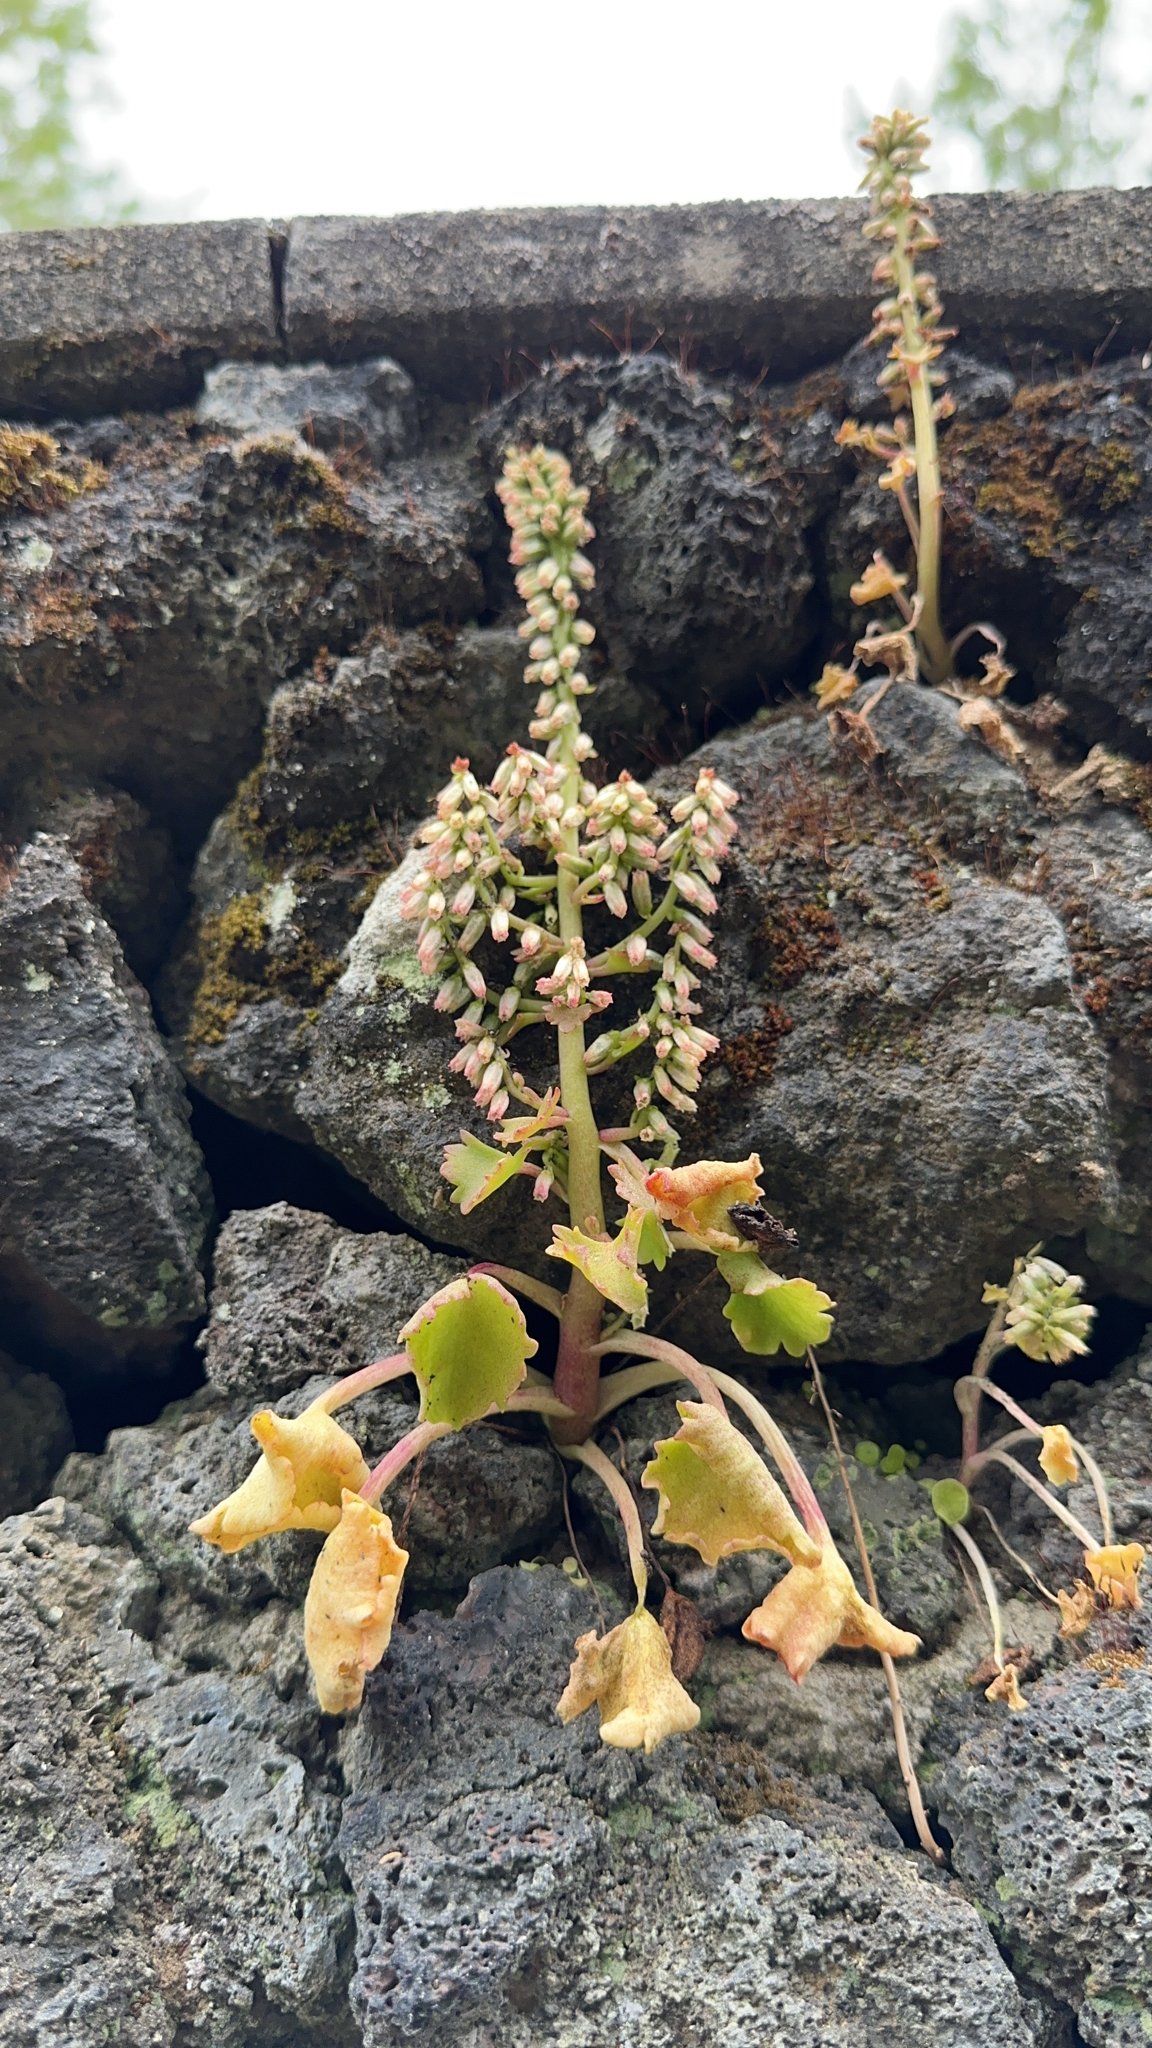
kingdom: Plantae
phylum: Tracheophyta
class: Magnoliopsida
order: Saxifragales
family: Crassulaceae
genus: Umbilicus
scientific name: Umbilicus rupestris
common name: Navelwort
